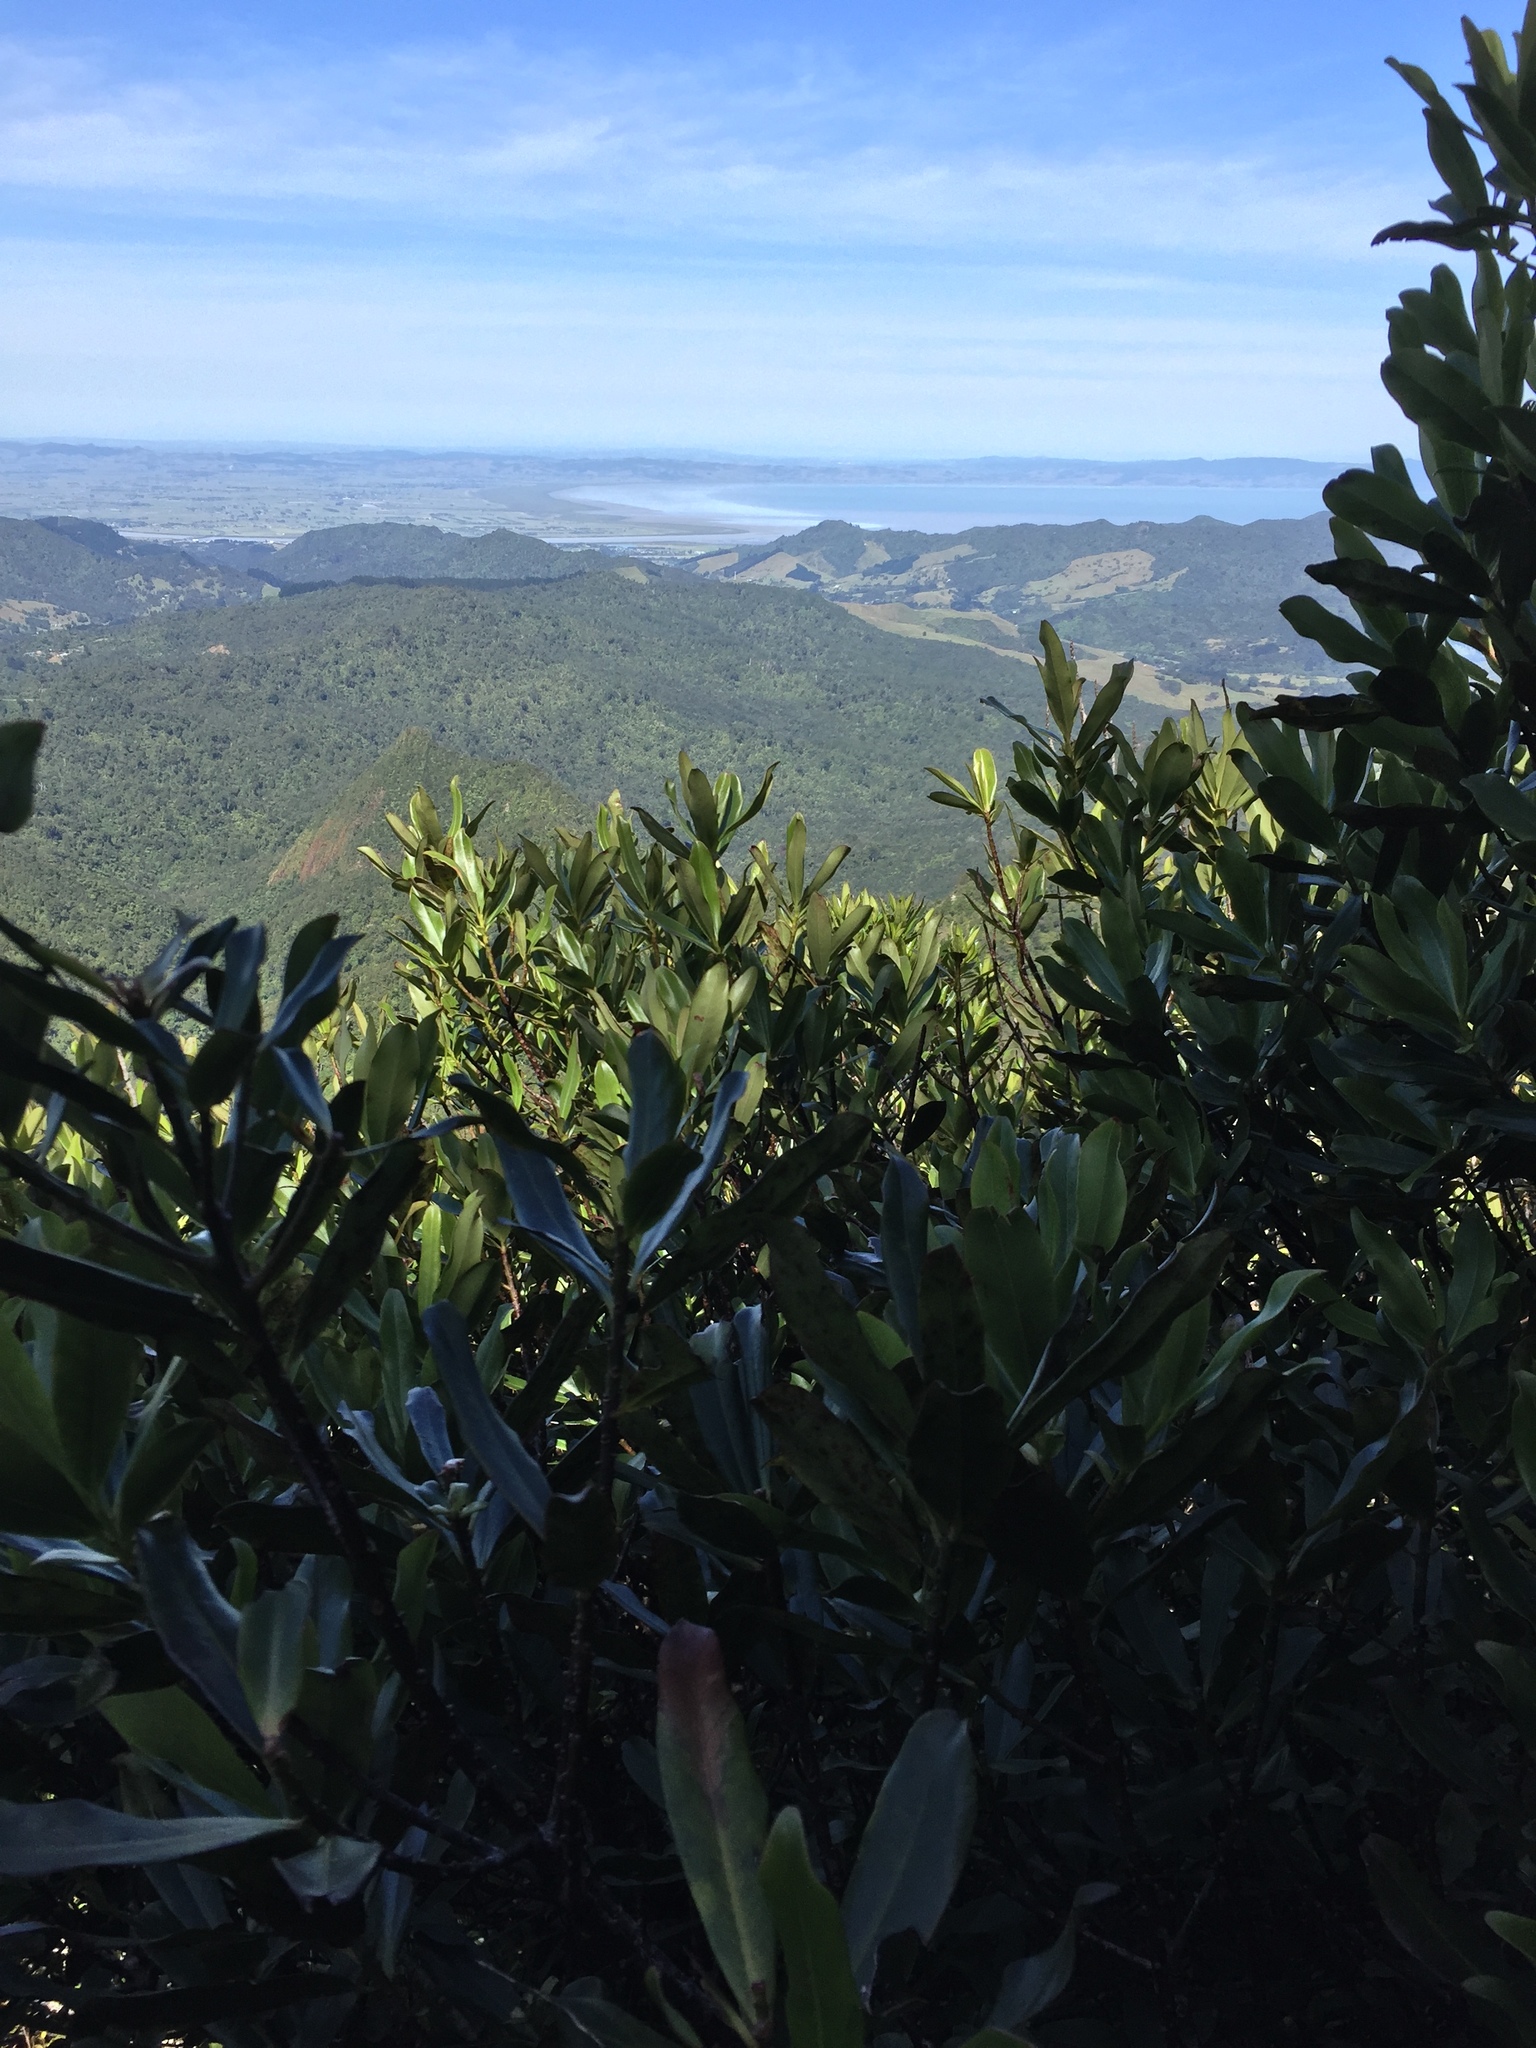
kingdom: Plantae
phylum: Tracheophyta
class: Magnoliopsida
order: Ericales
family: Primulaceae
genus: Myrsine
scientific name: Myrsine salicina
